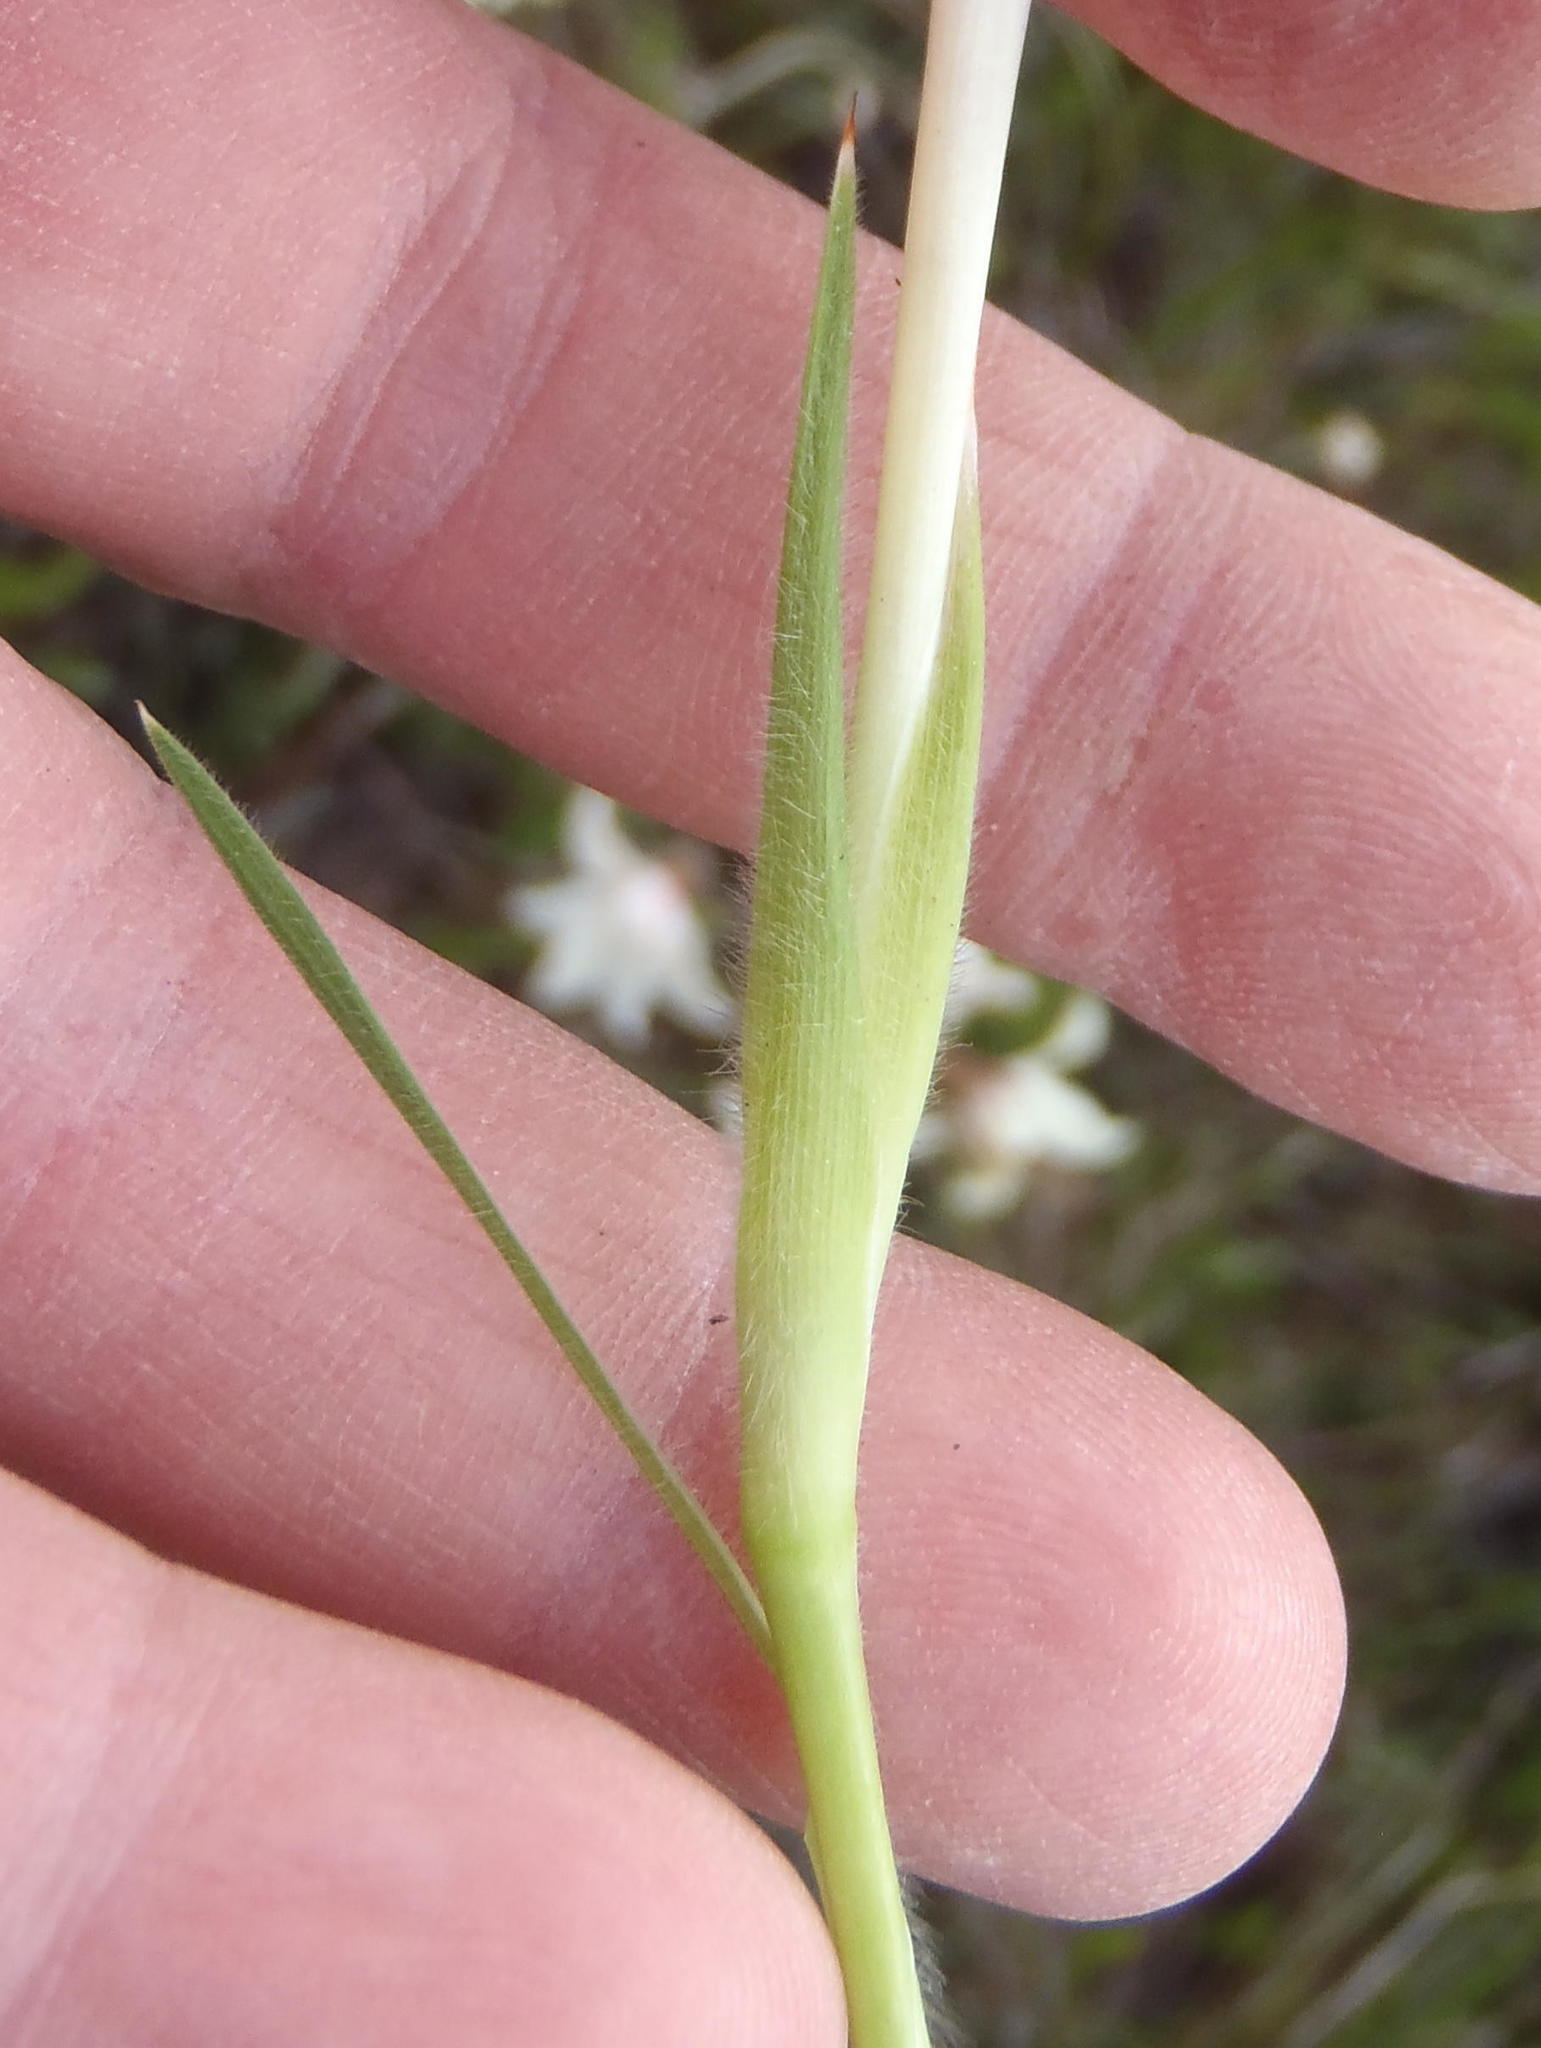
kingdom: Plantae
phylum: Tracheophyta
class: Liliopsida
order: Asparagales
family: Iridaceae
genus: Babiana
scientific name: Babiana sambucina
